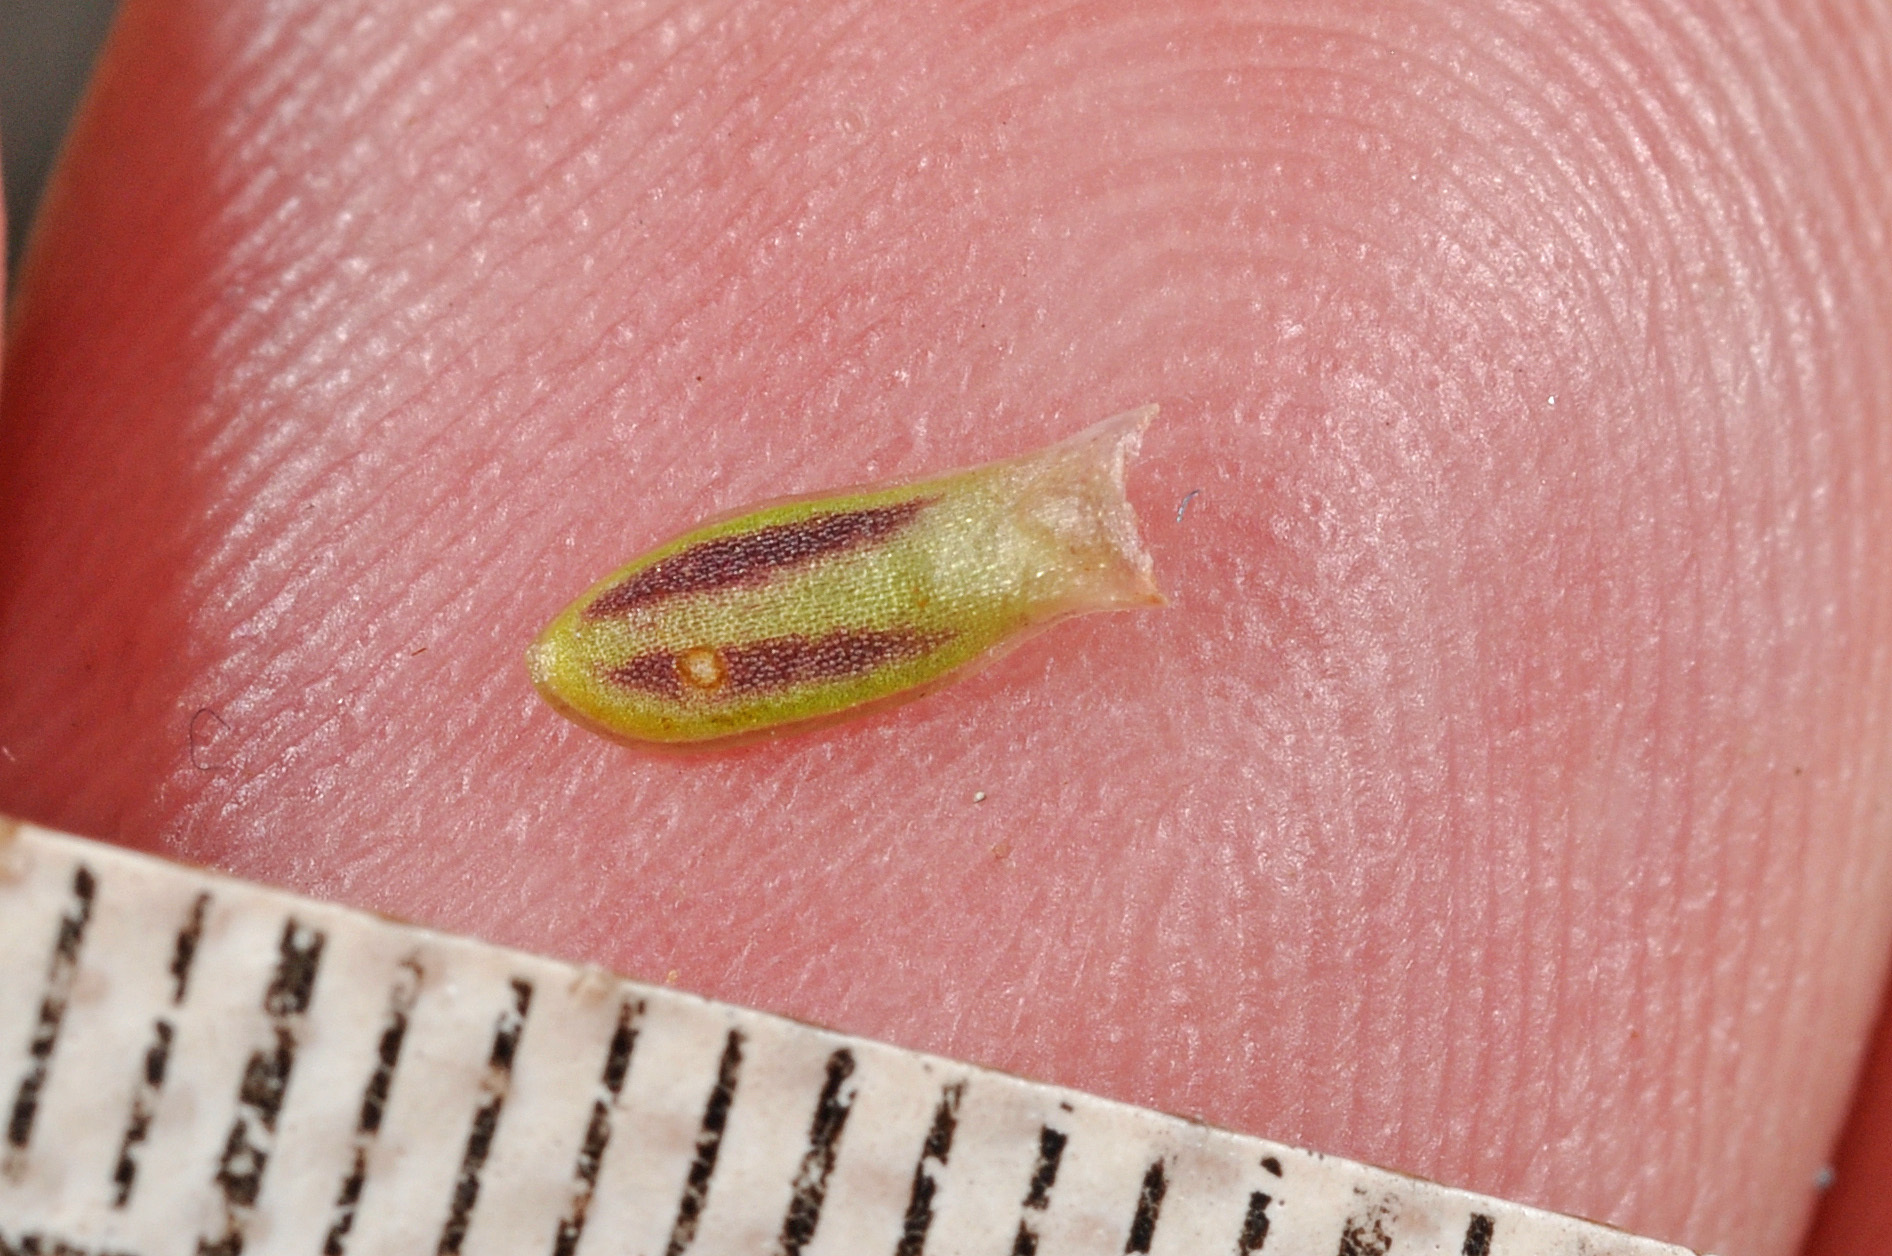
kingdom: Plantae
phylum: Tracheophyta
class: Magnoliopsida
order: Asterales
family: Stylidiaceae
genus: Forstera
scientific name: Forstera purpurata
